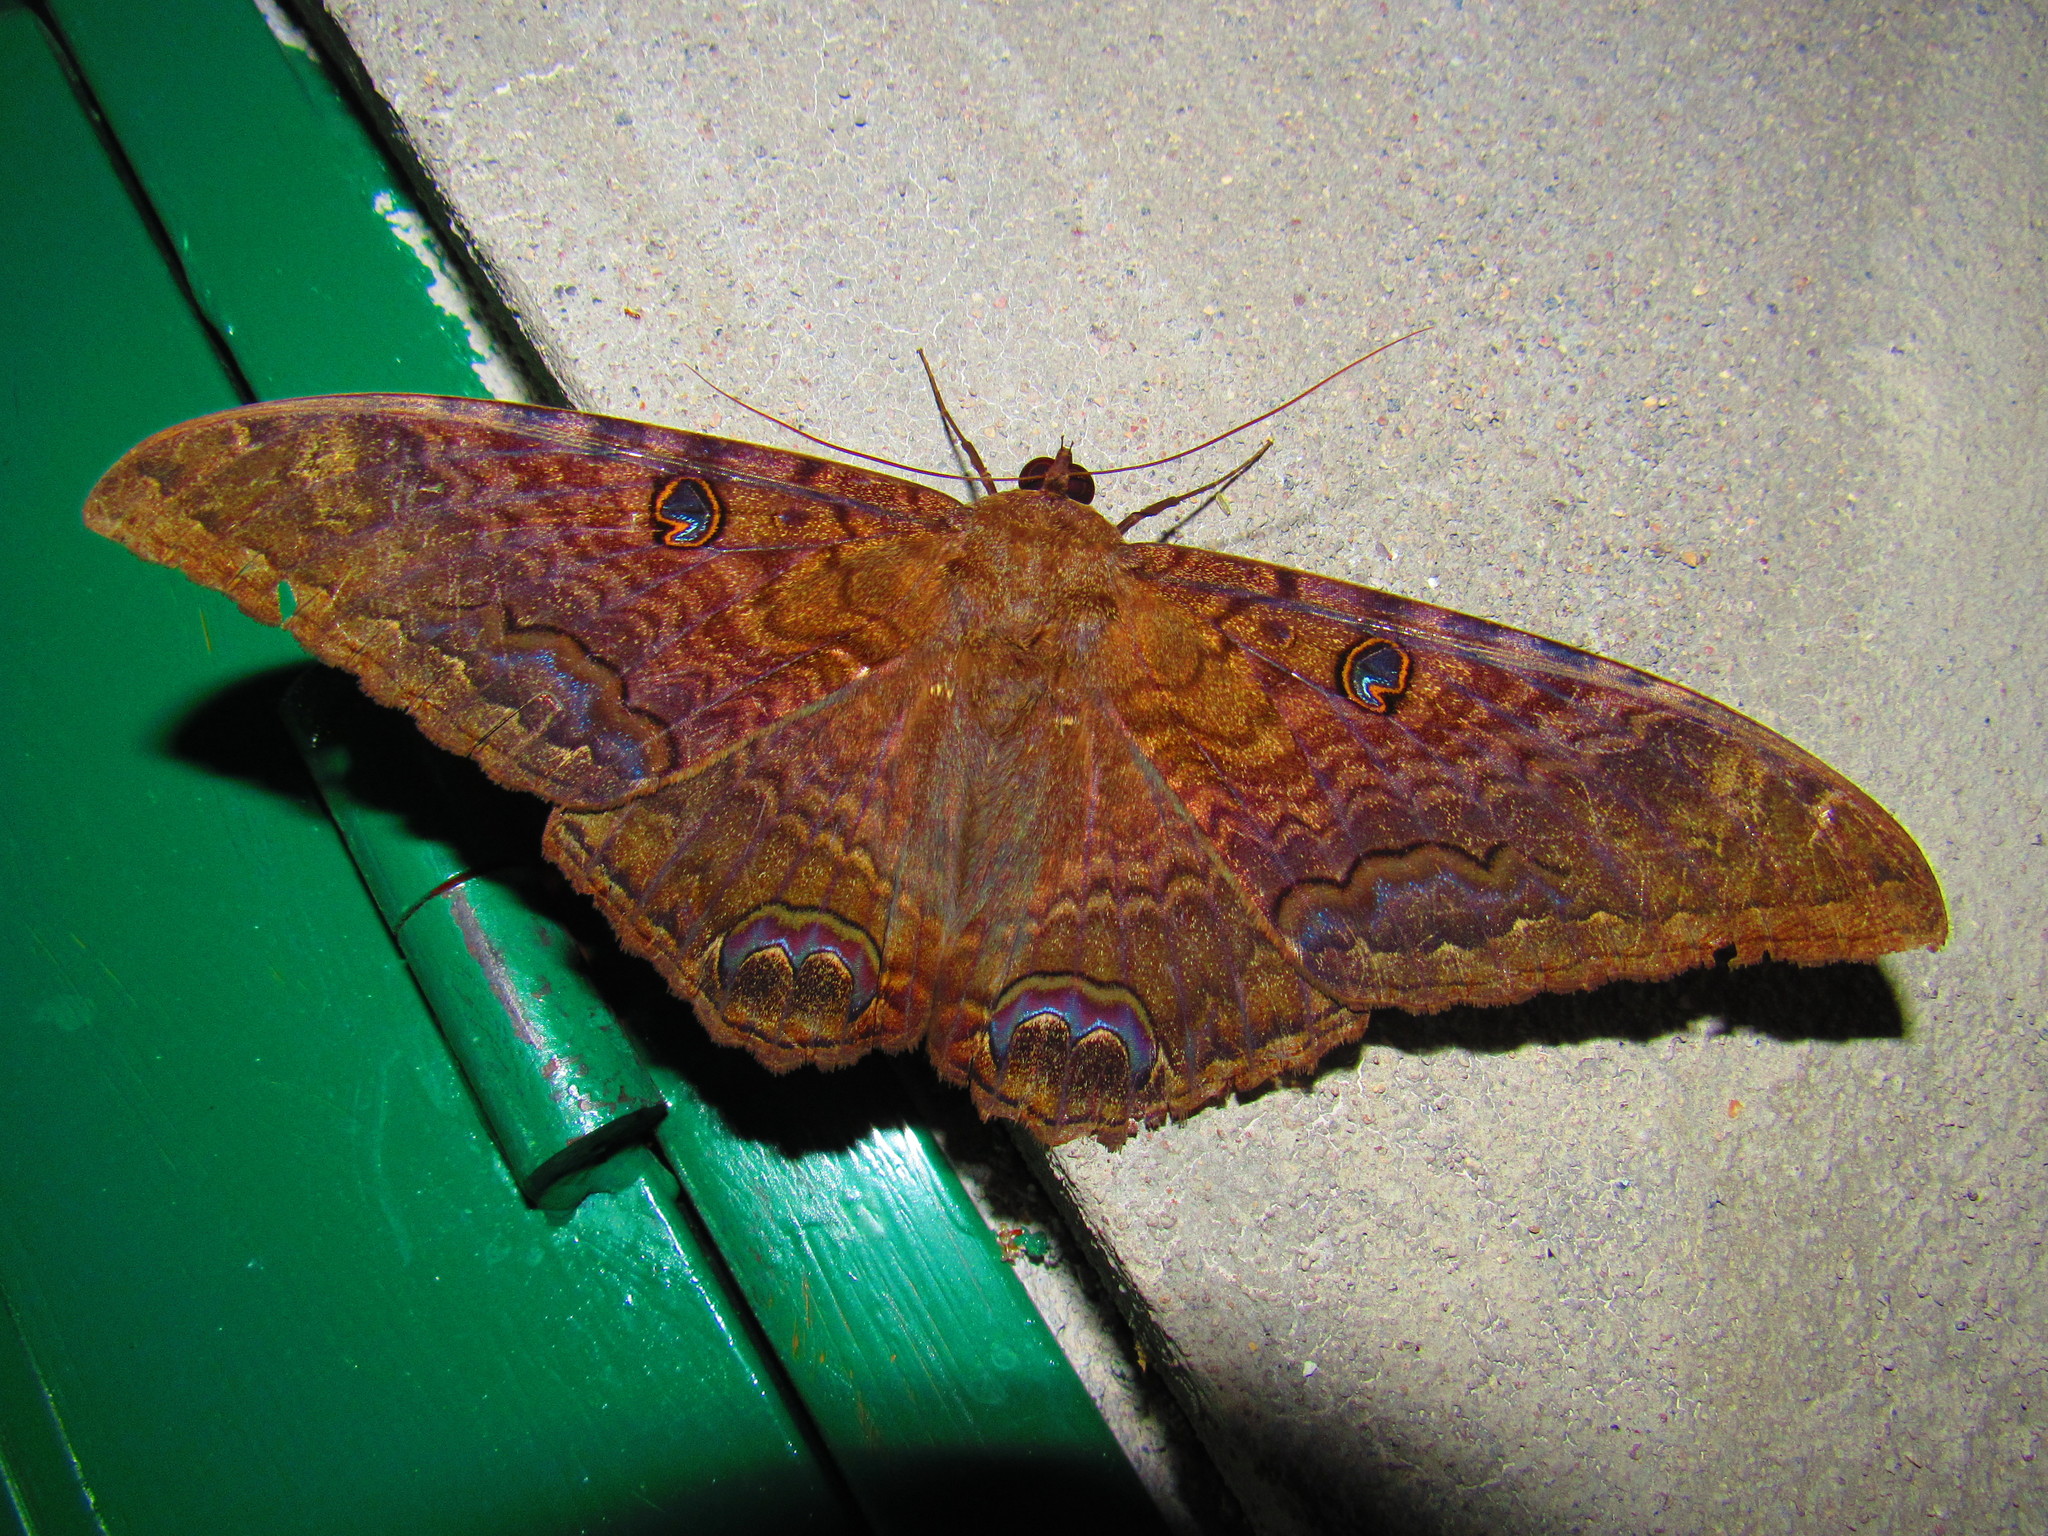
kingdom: Animalia
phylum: Arthropoda
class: Insecta
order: Lepidoptera
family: Erebidae
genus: Ascalapha
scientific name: Ascalapha odorata
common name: Black witch
